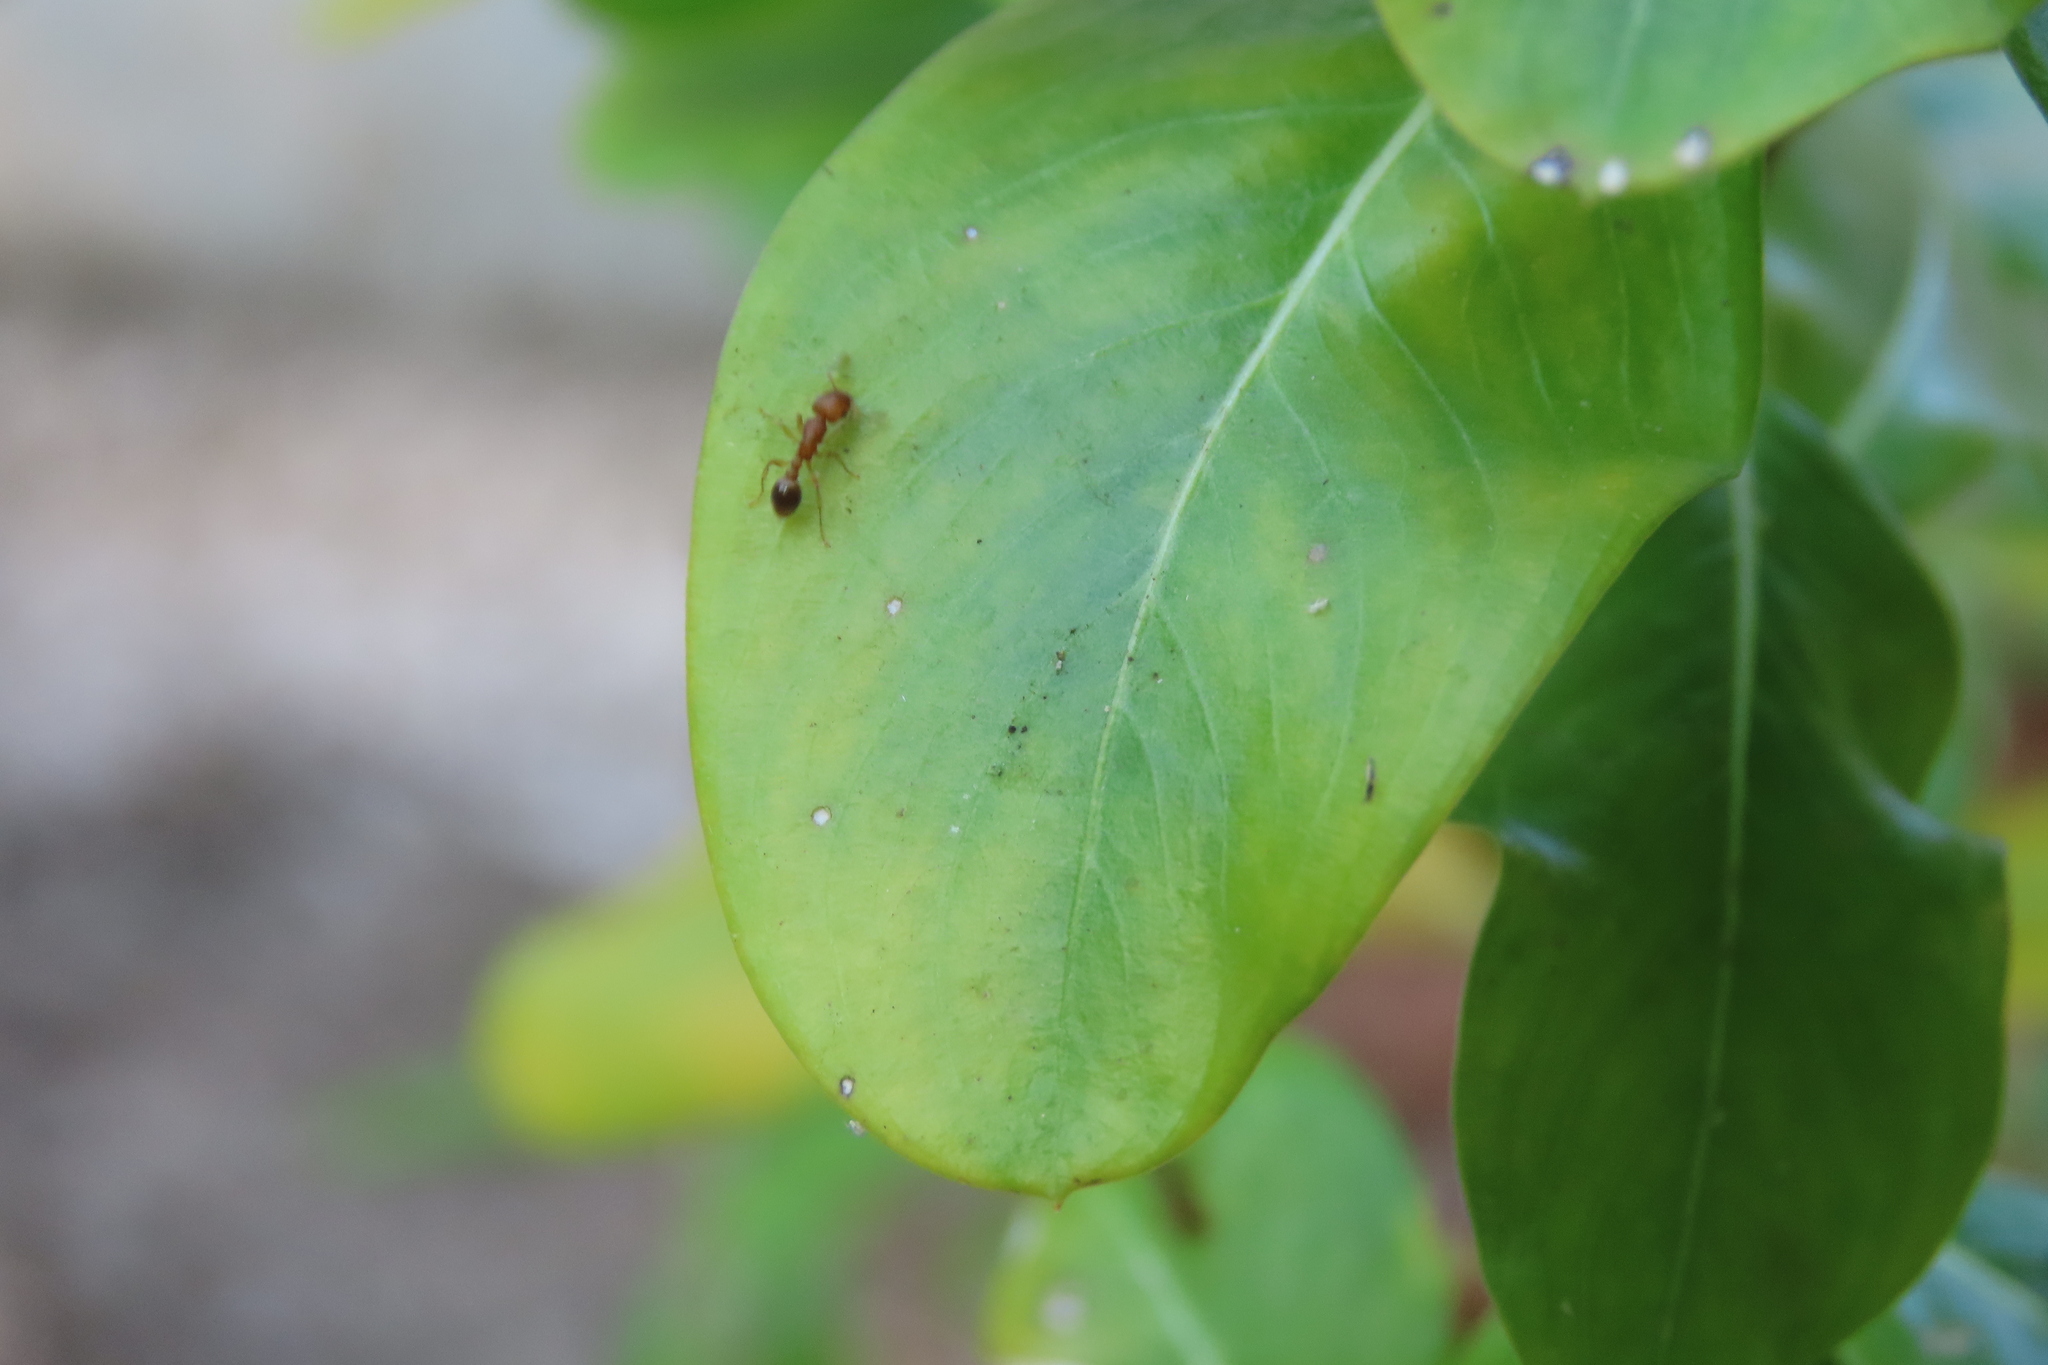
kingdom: Animalia
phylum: Arthropoda
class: Insecta
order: Hymenoptera
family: Formicidae
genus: Tetramorium
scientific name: Tetramorium bicarinatum
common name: Guinea ant
